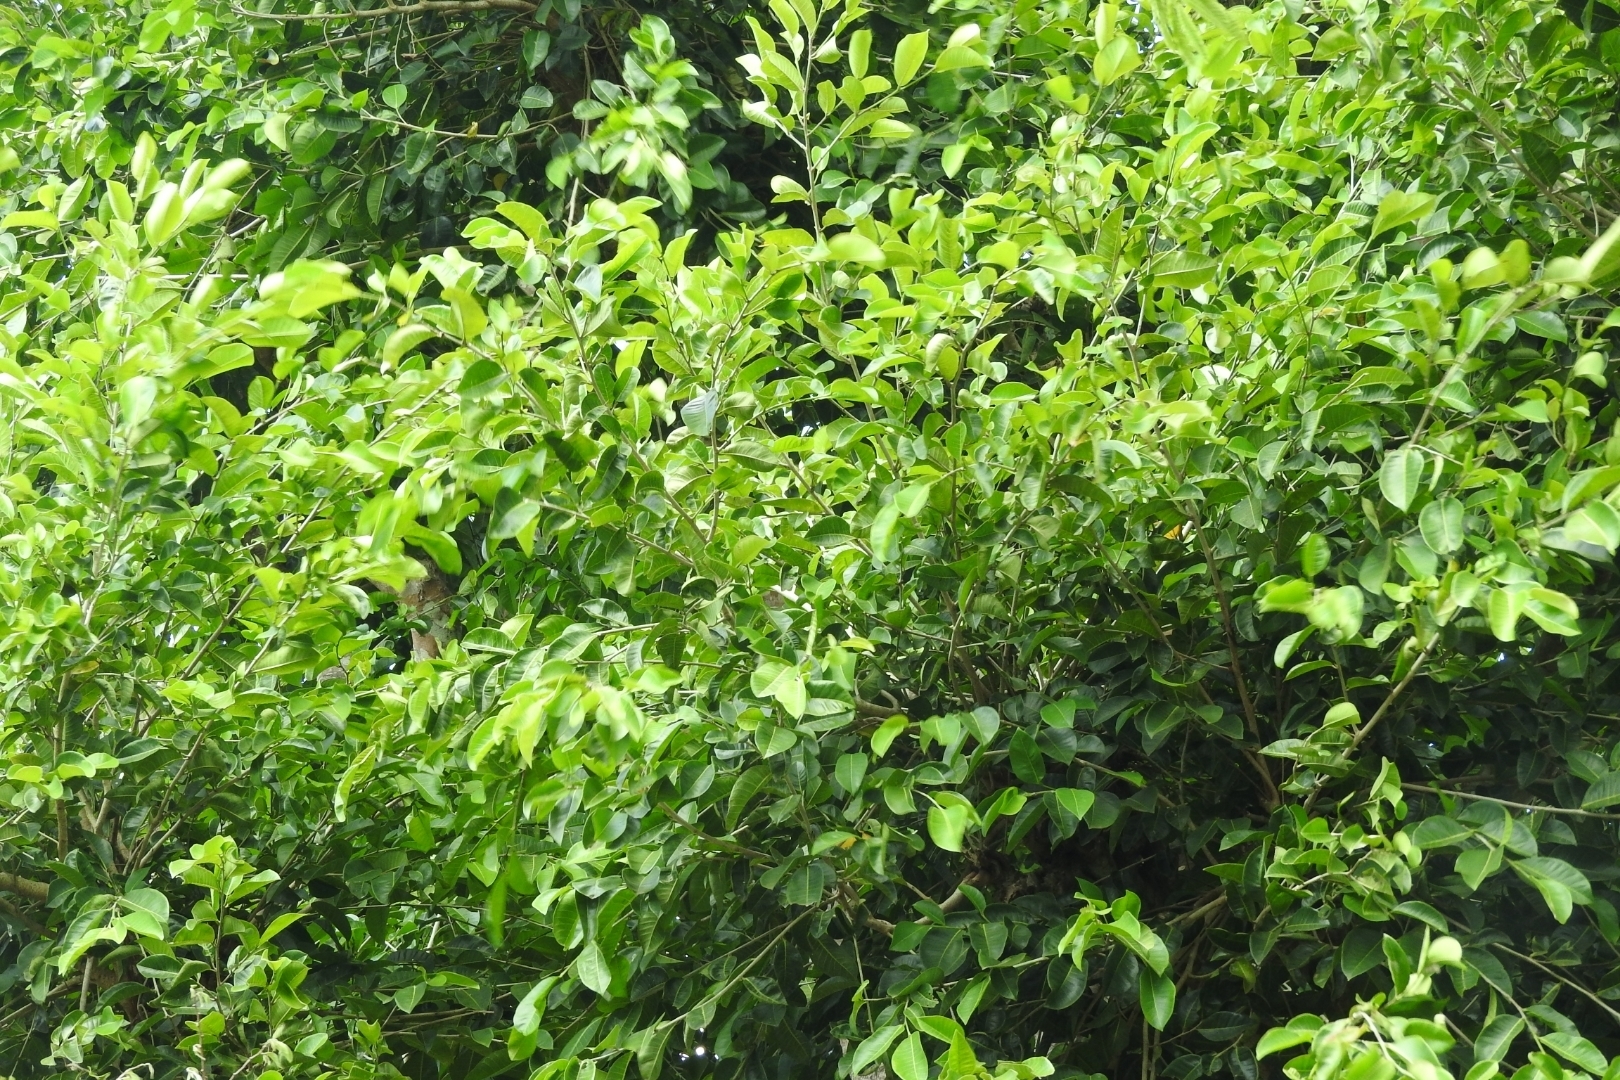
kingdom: Plantae
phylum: Tracheophyta
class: Magnoliopsida
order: Rosales
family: Moraceae
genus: Brosimum
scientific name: Brosimum alicastrum
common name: Breadnut
